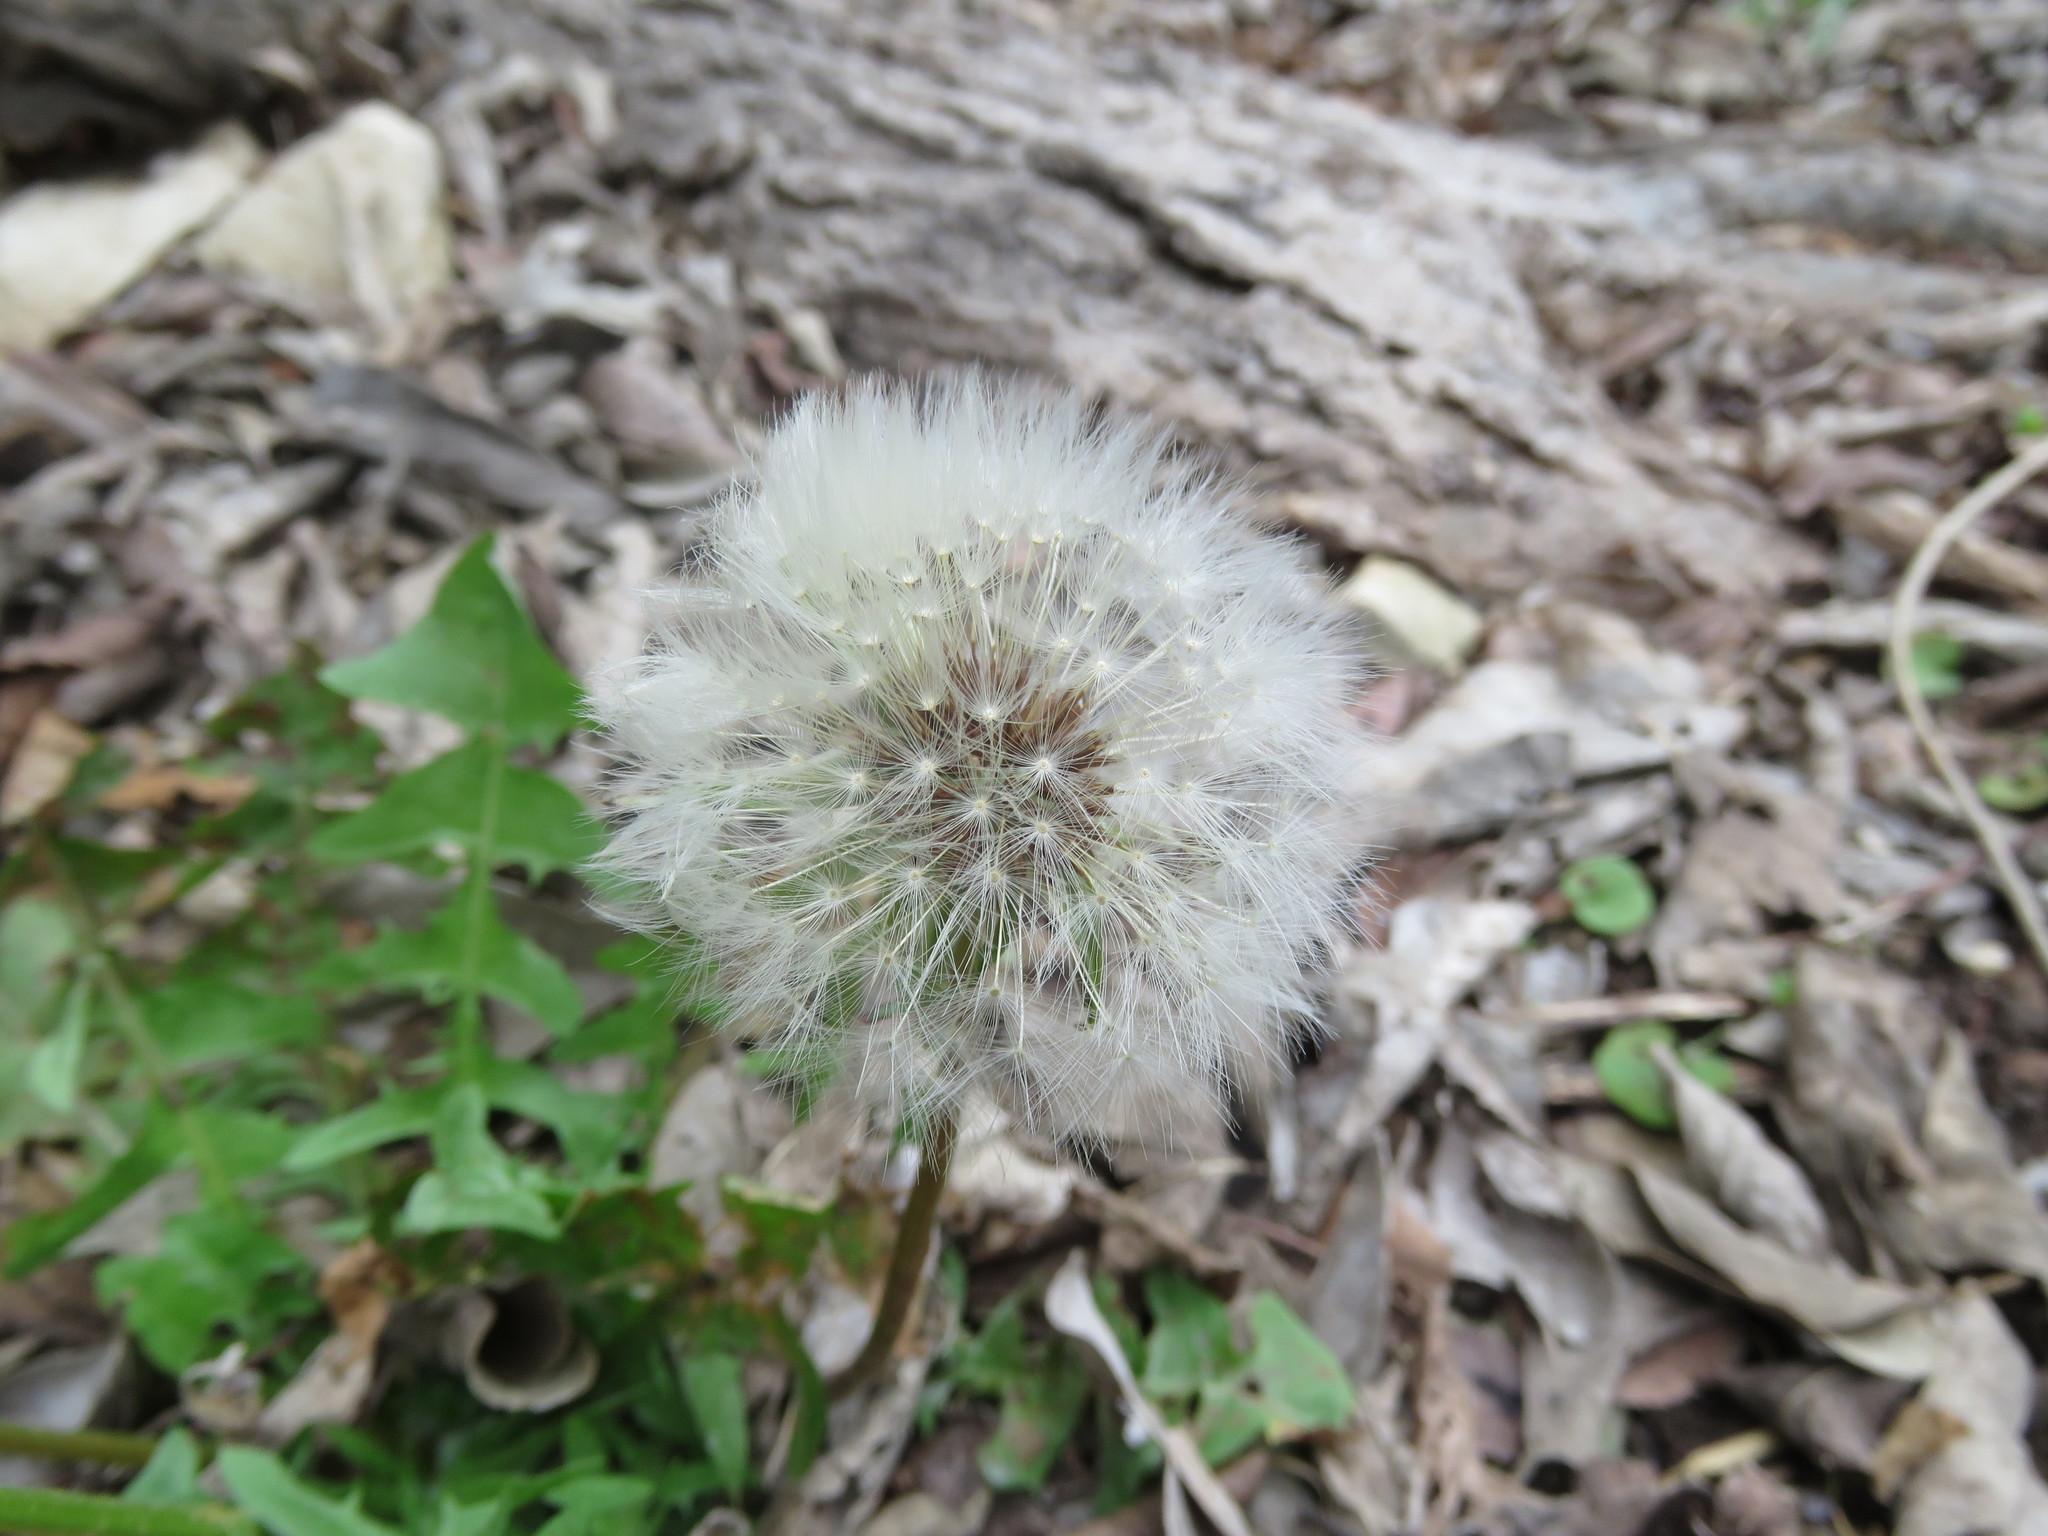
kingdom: Plantae
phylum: Tracheophyta
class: Magnoliopsida
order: Asterales
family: Asteraceae
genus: Taraxacum
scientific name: Taraxacum officinale
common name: Common dandelion
